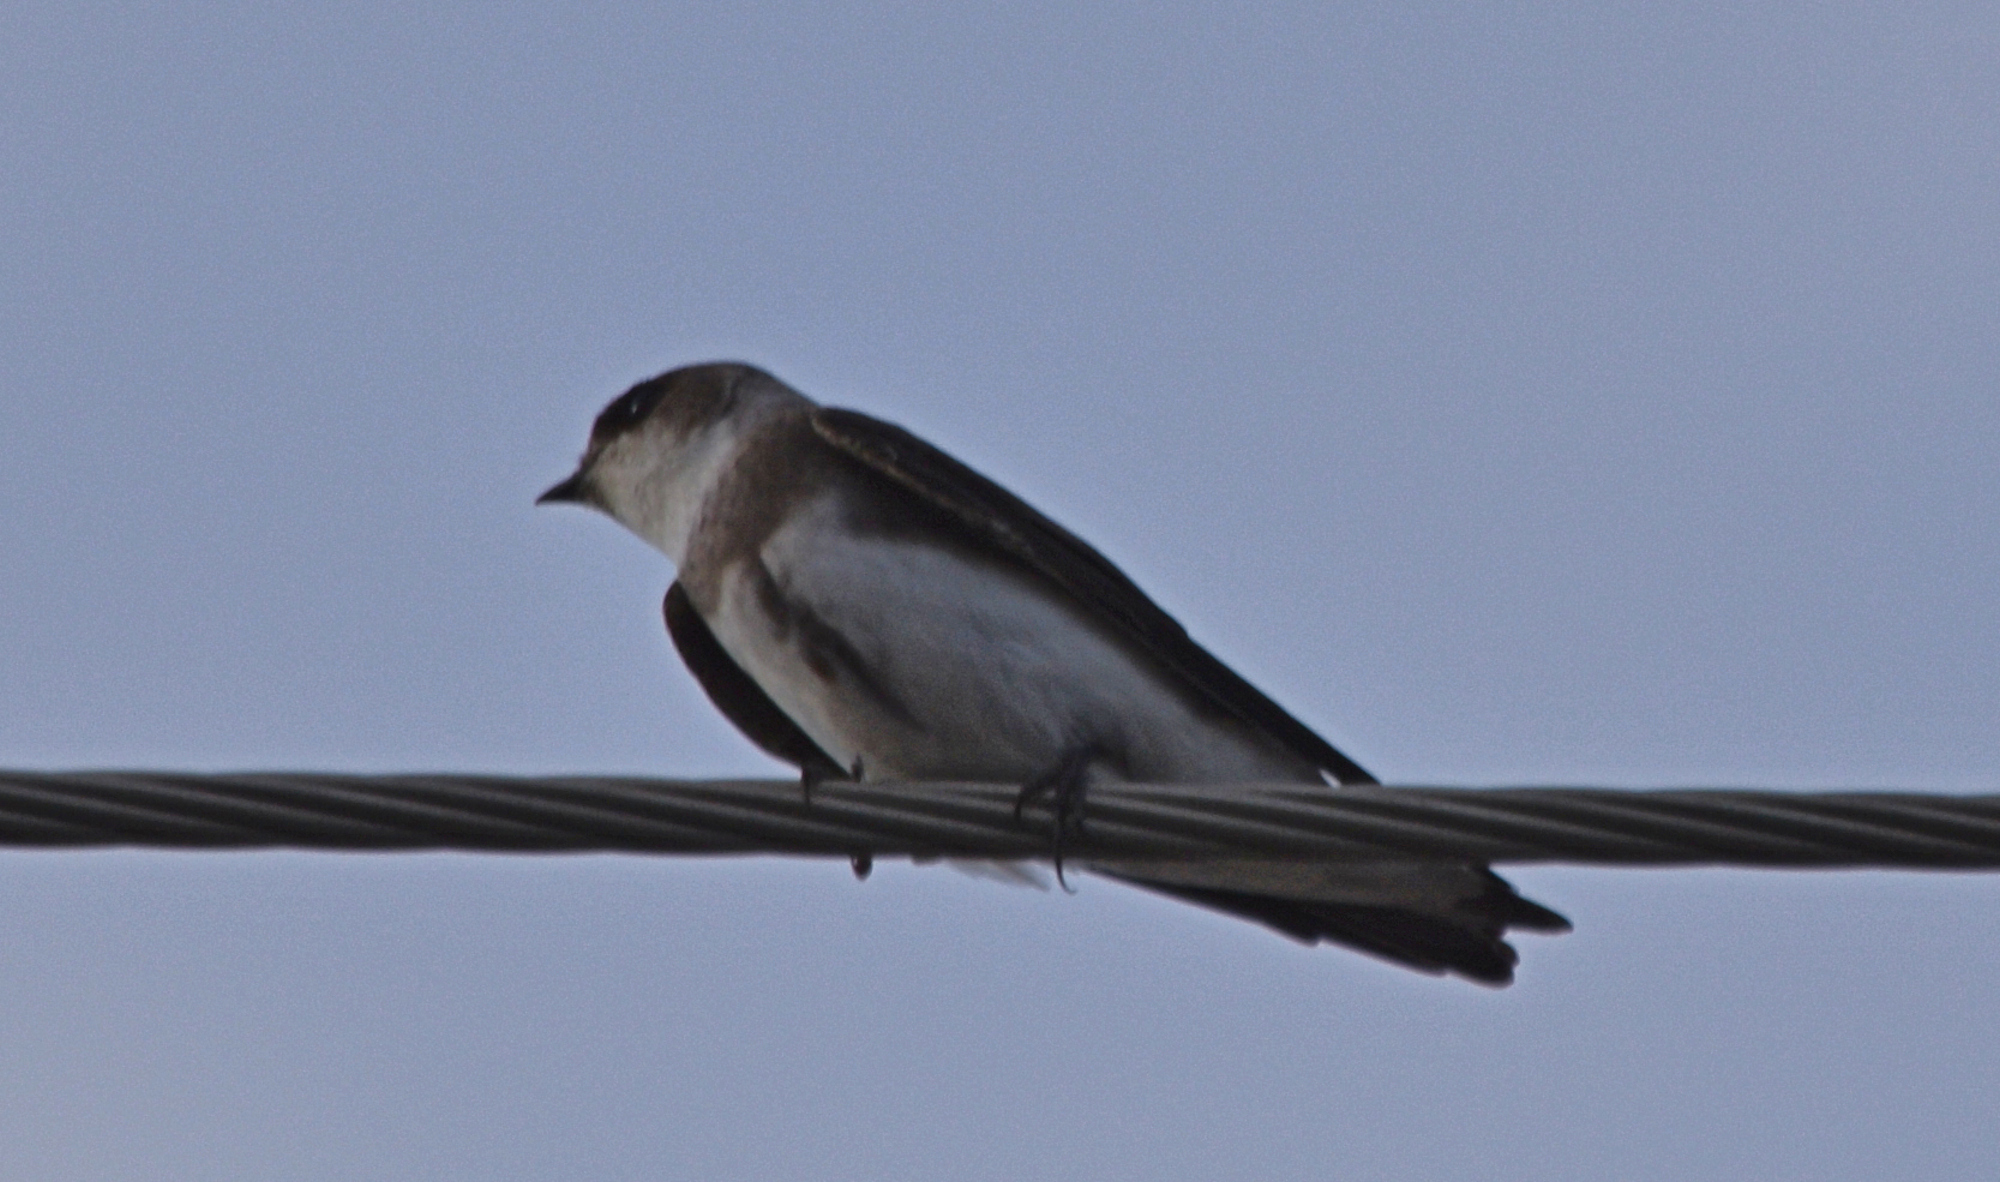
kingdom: Animalia
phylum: Chordata
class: Aves
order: Passeriformes
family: Hirundinidae
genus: Riparia
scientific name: Riparia riparia
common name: Sand martin
